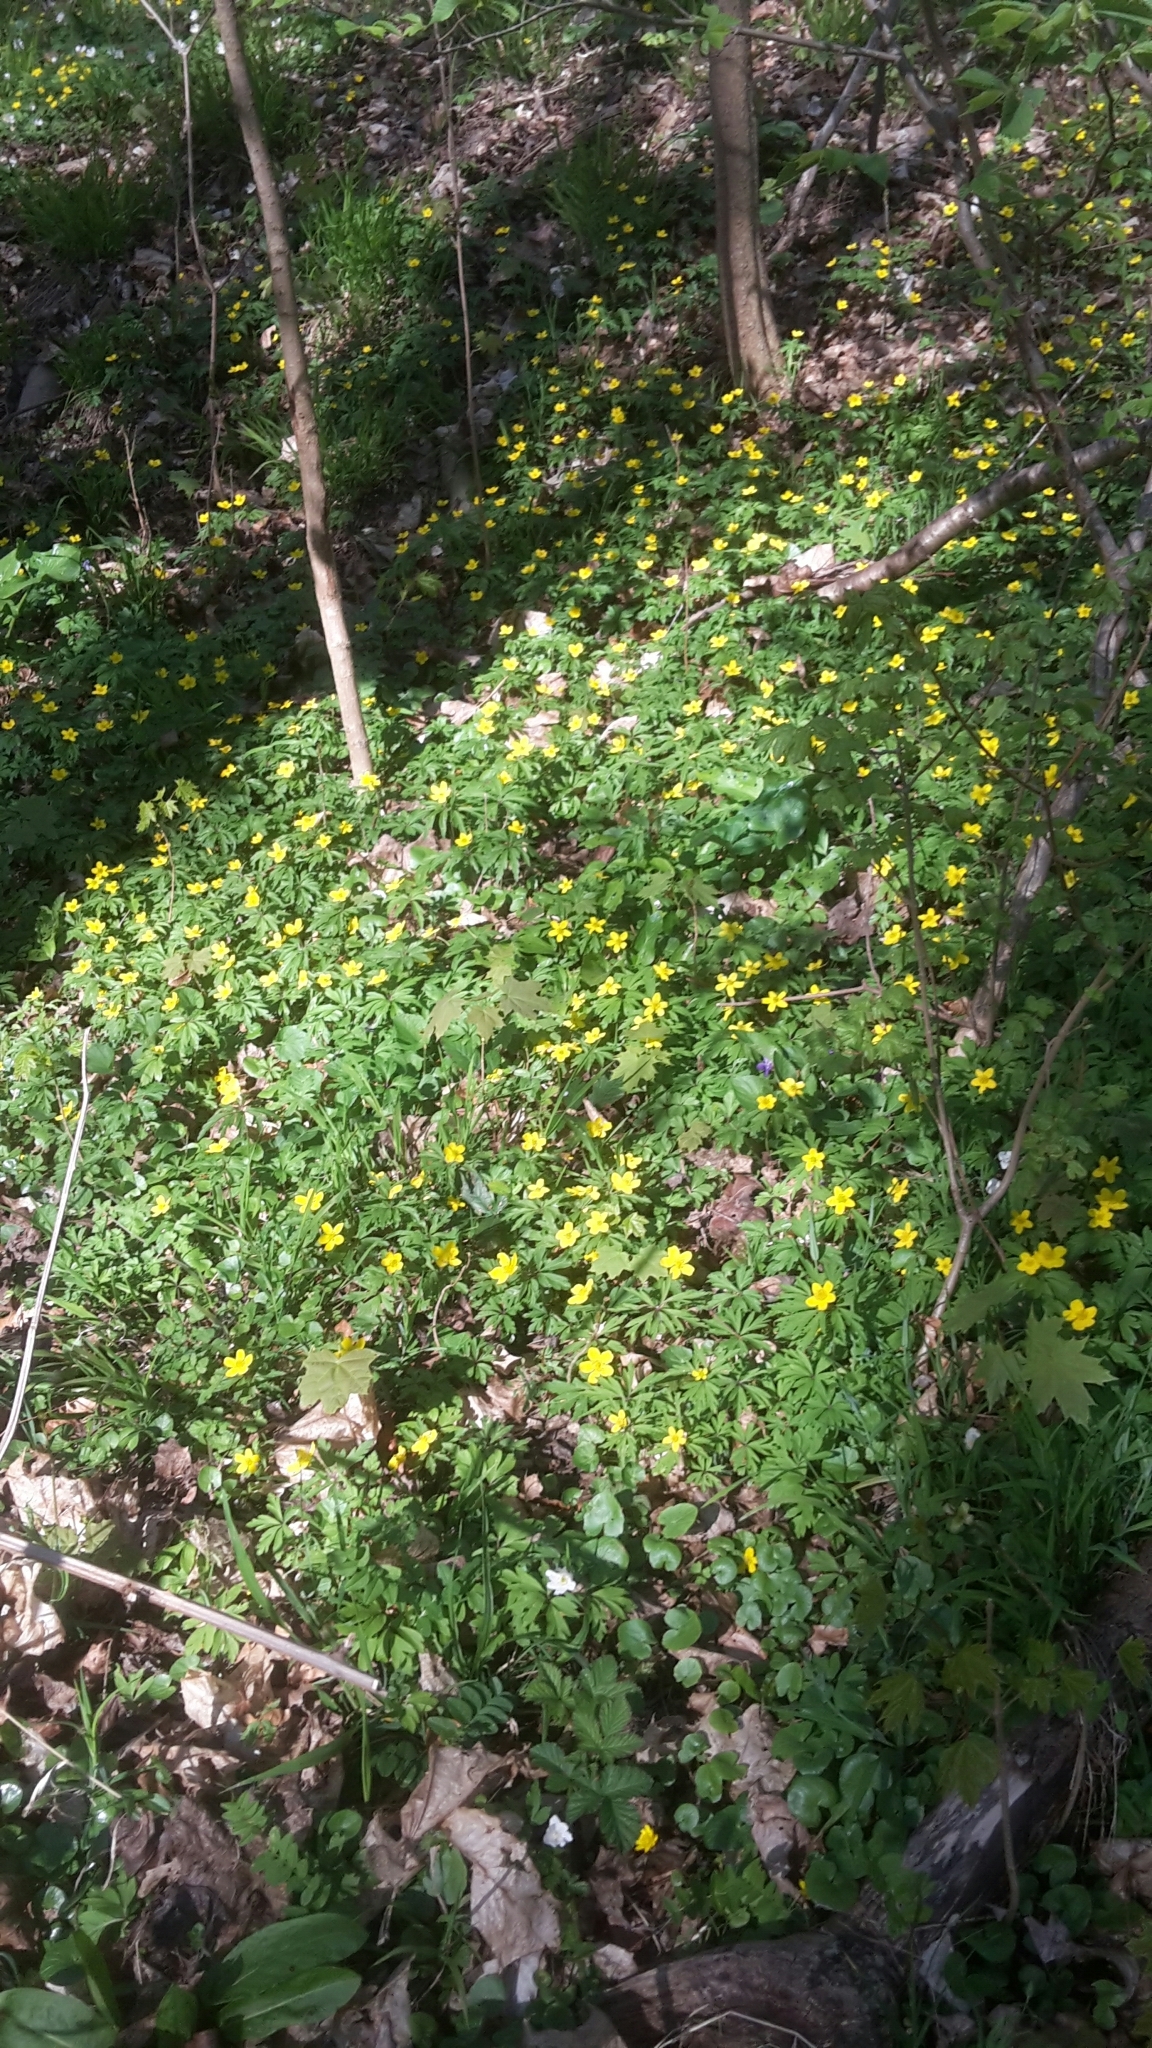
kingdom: Plantae
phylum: Tracheophyta
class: Magnoliopsida
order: Ranunculales
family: Ranunculaceae
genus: Anemone
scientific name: Anemone ranunculoides
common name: Yellow anemone
